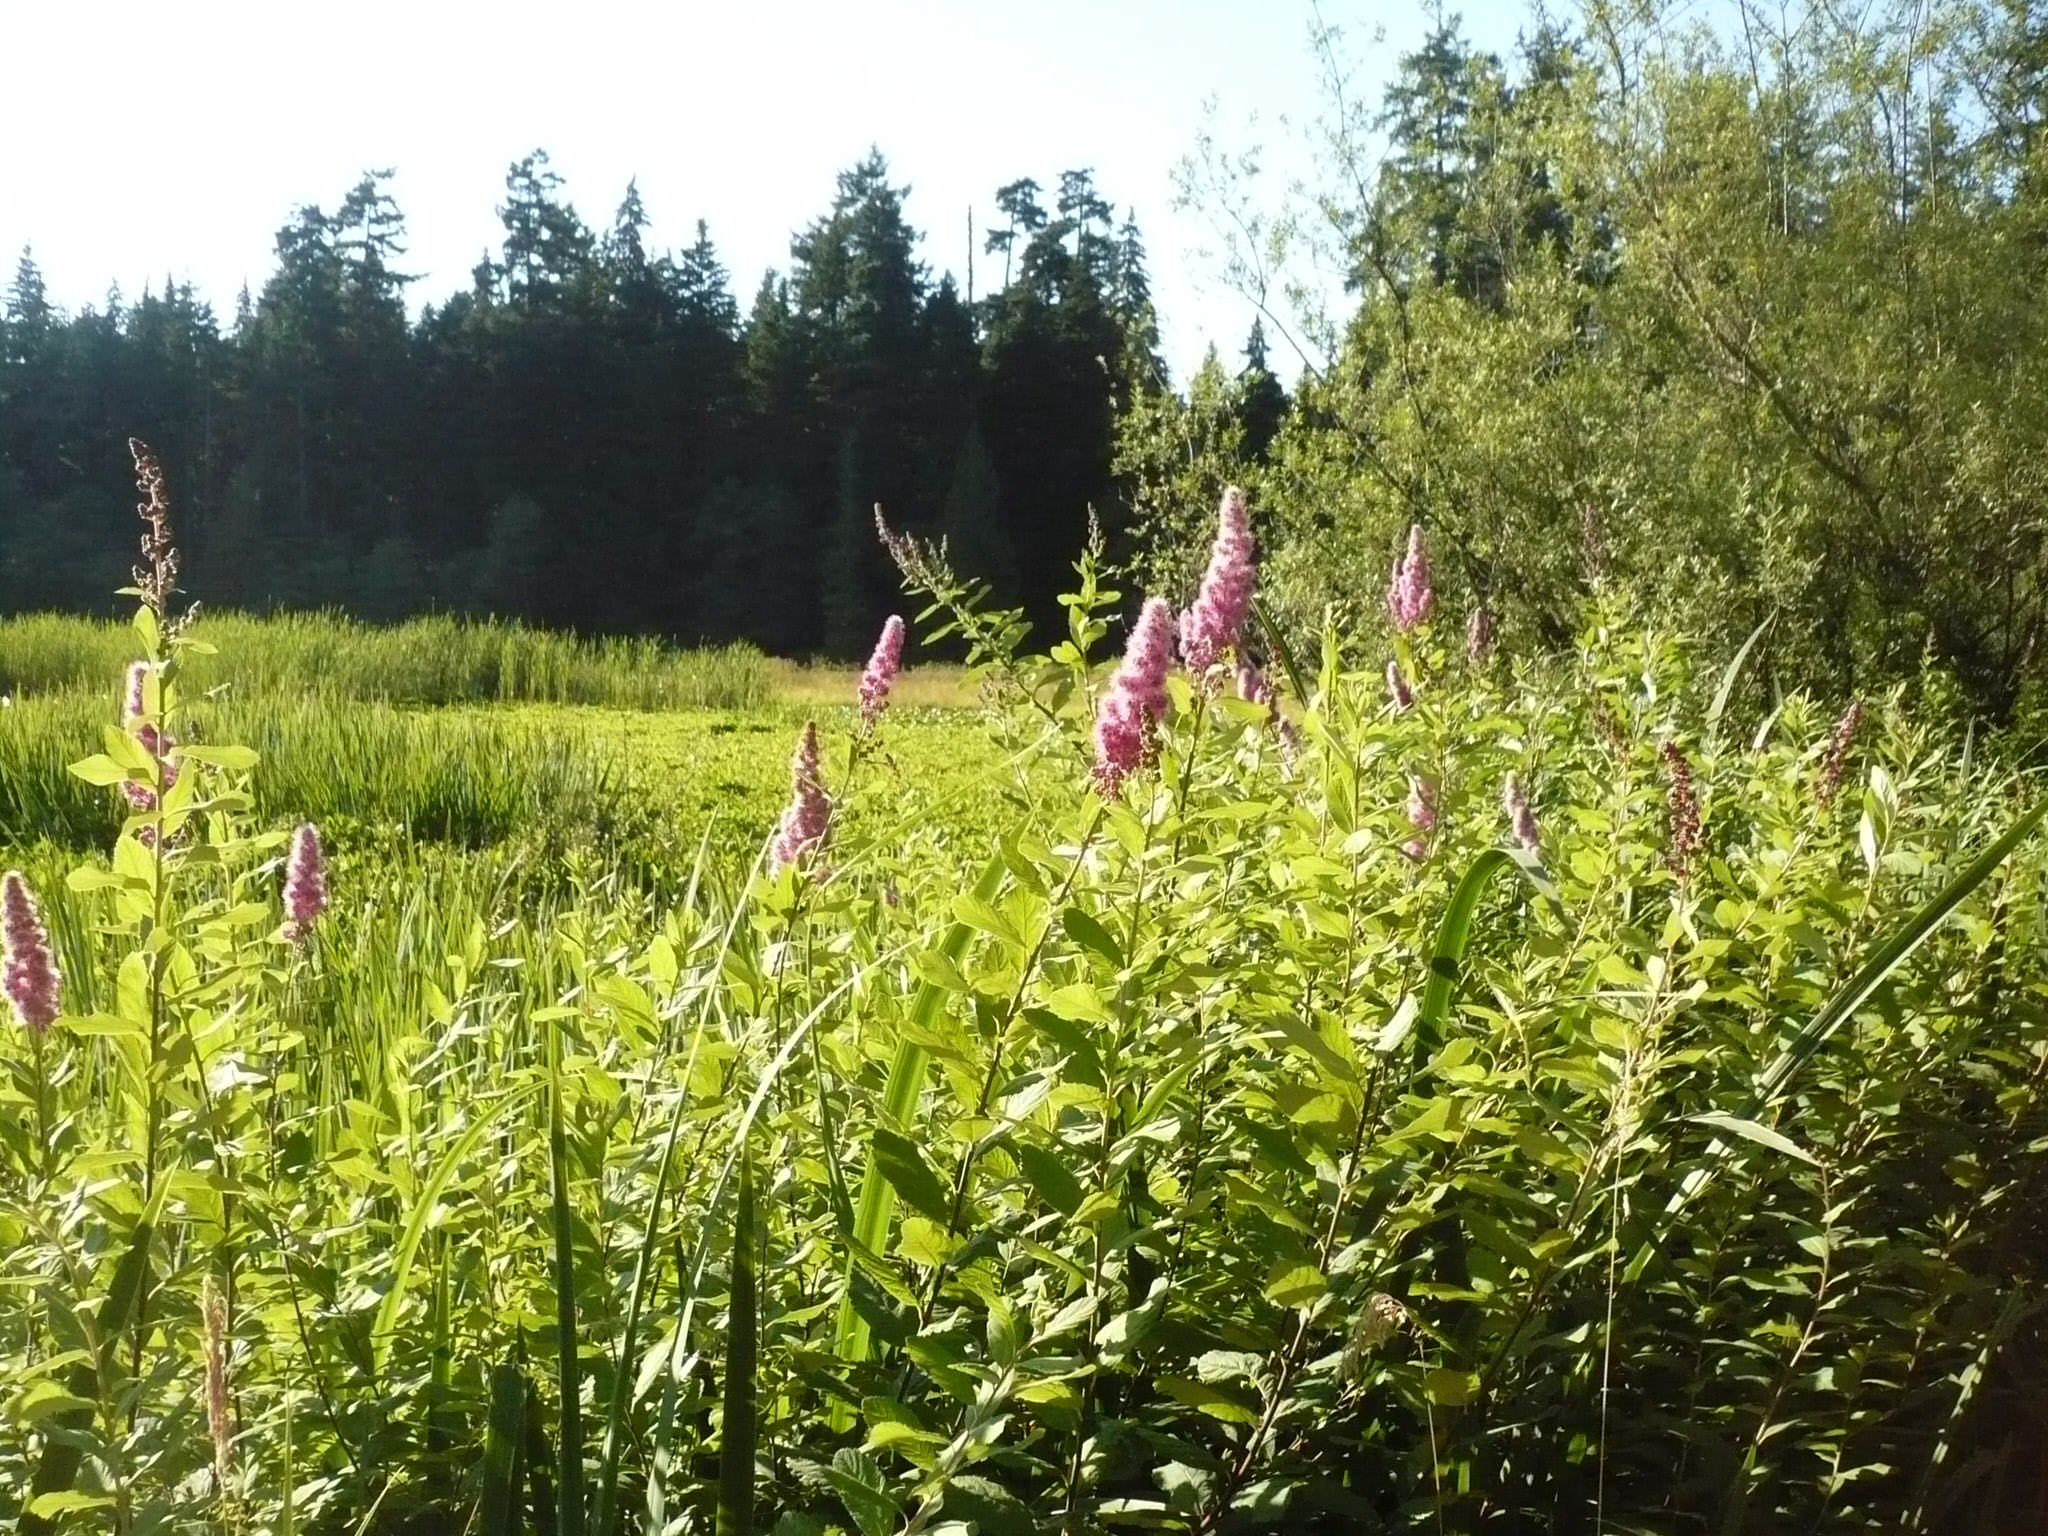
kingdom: Plantae
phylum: Tracheophyta
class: Magnoliopsida
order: Rosales
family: Rosaceae
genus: Spiraea
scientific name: Spiraea douglasii
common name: Steeplebush
